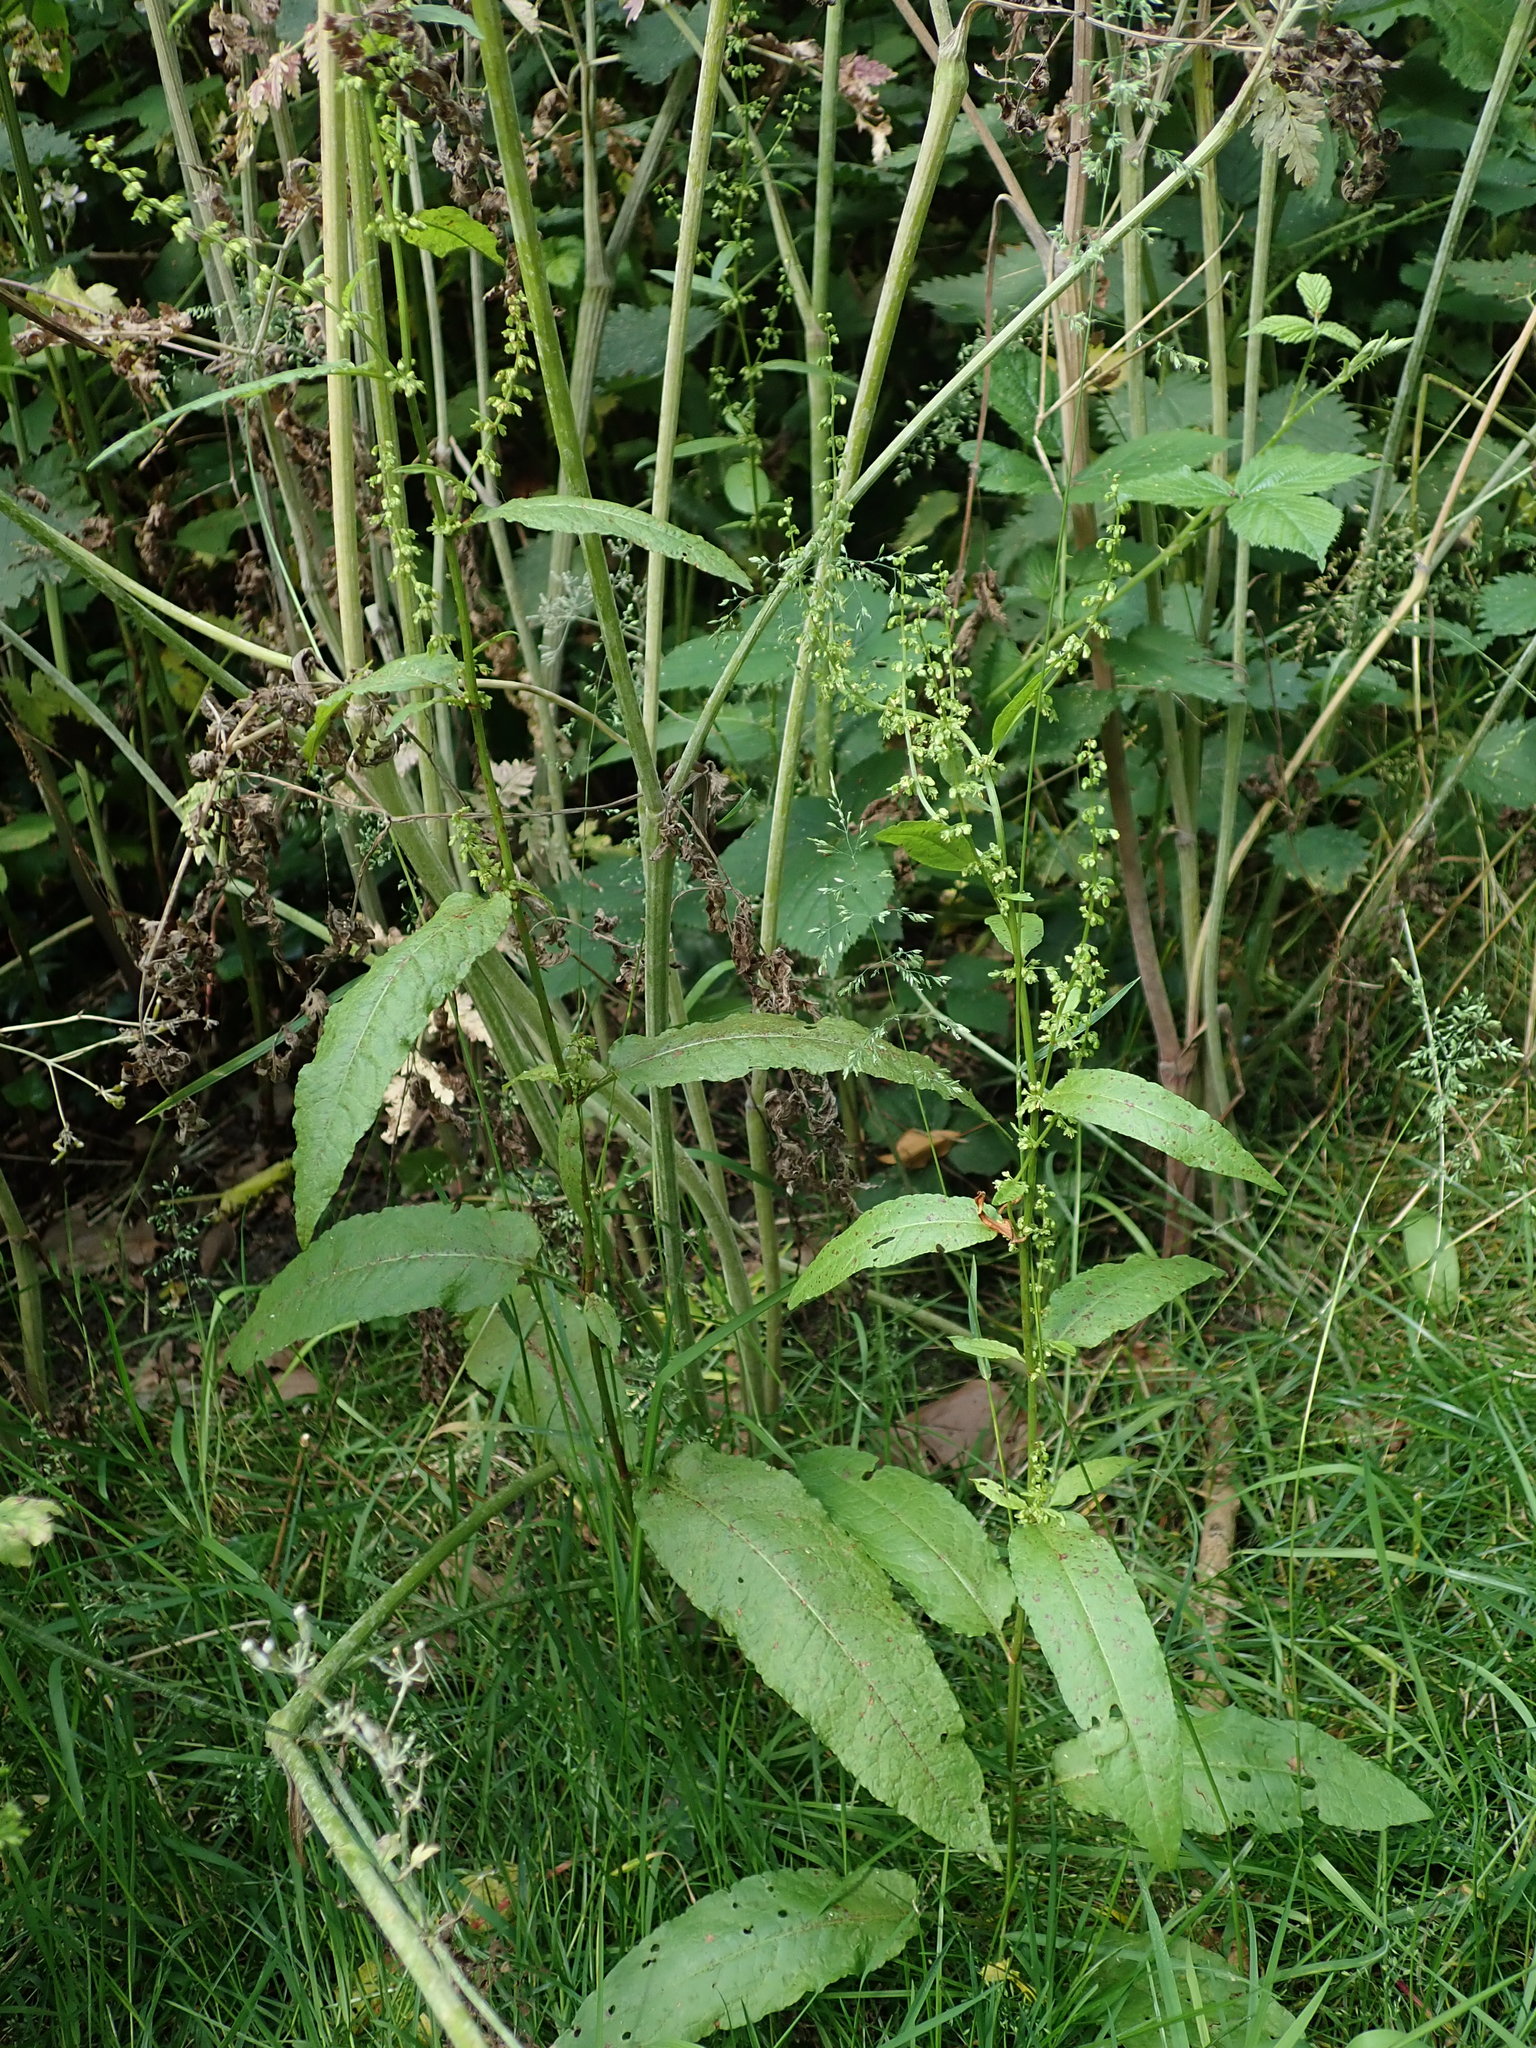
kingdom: Plantae
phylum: Tracheophyta
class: Magnoliopsida
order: Caryophyllales
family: Polygonaceae
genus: Rumex
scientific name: Rumex sanguineus
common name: Wood dock
